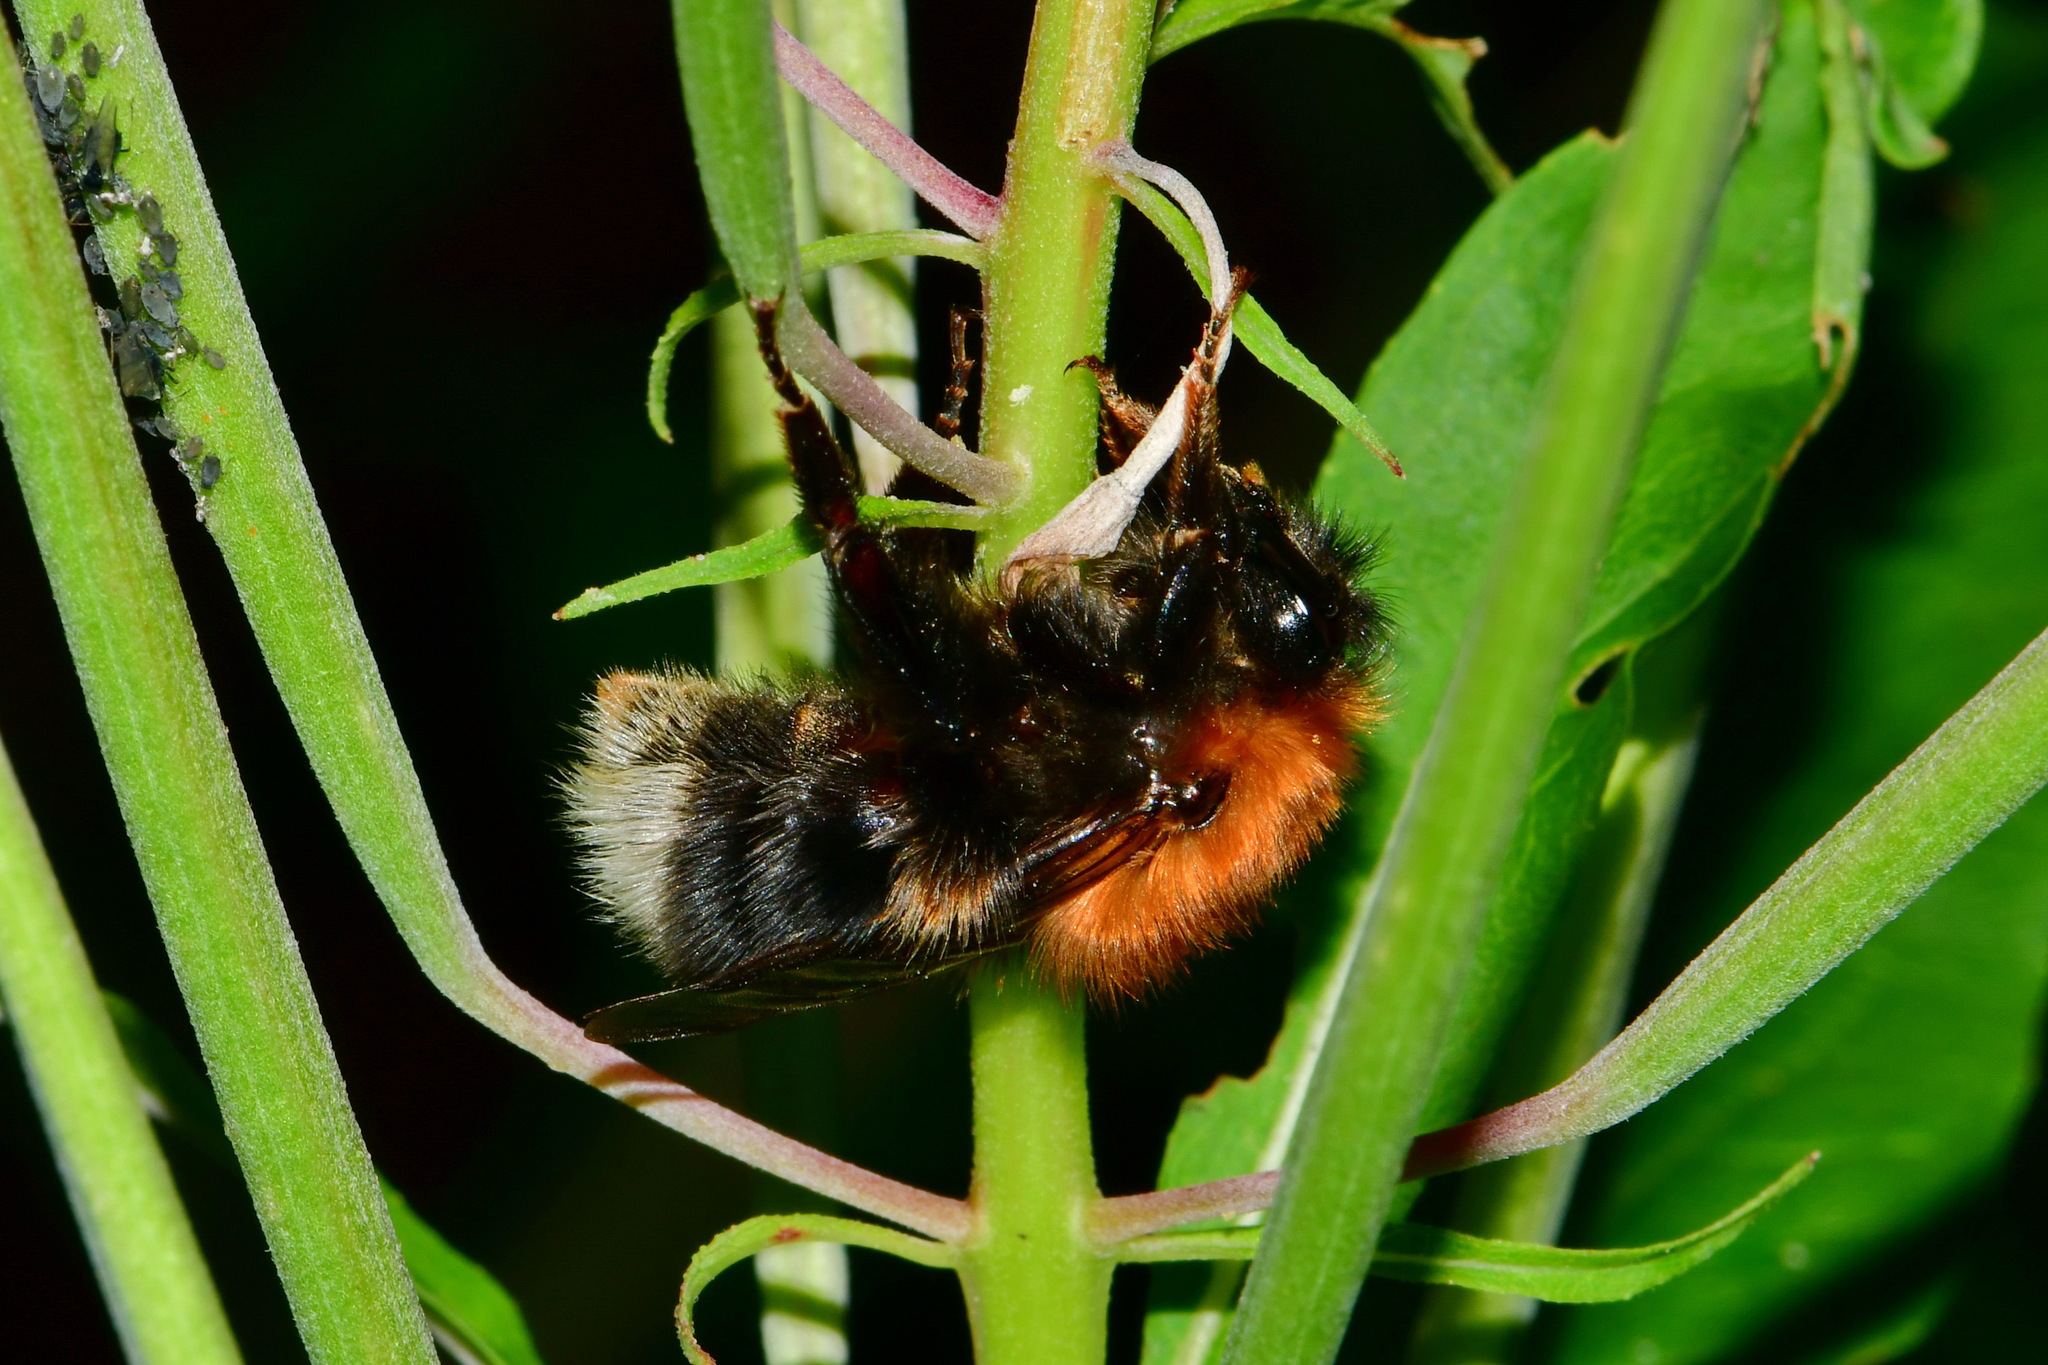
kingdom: Animalia
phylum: Arthropoda
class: Insecta
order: Hymenoptera
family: Apidae
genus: Bombus
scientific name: Bombus hypnorum
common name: New garden bumblebee
